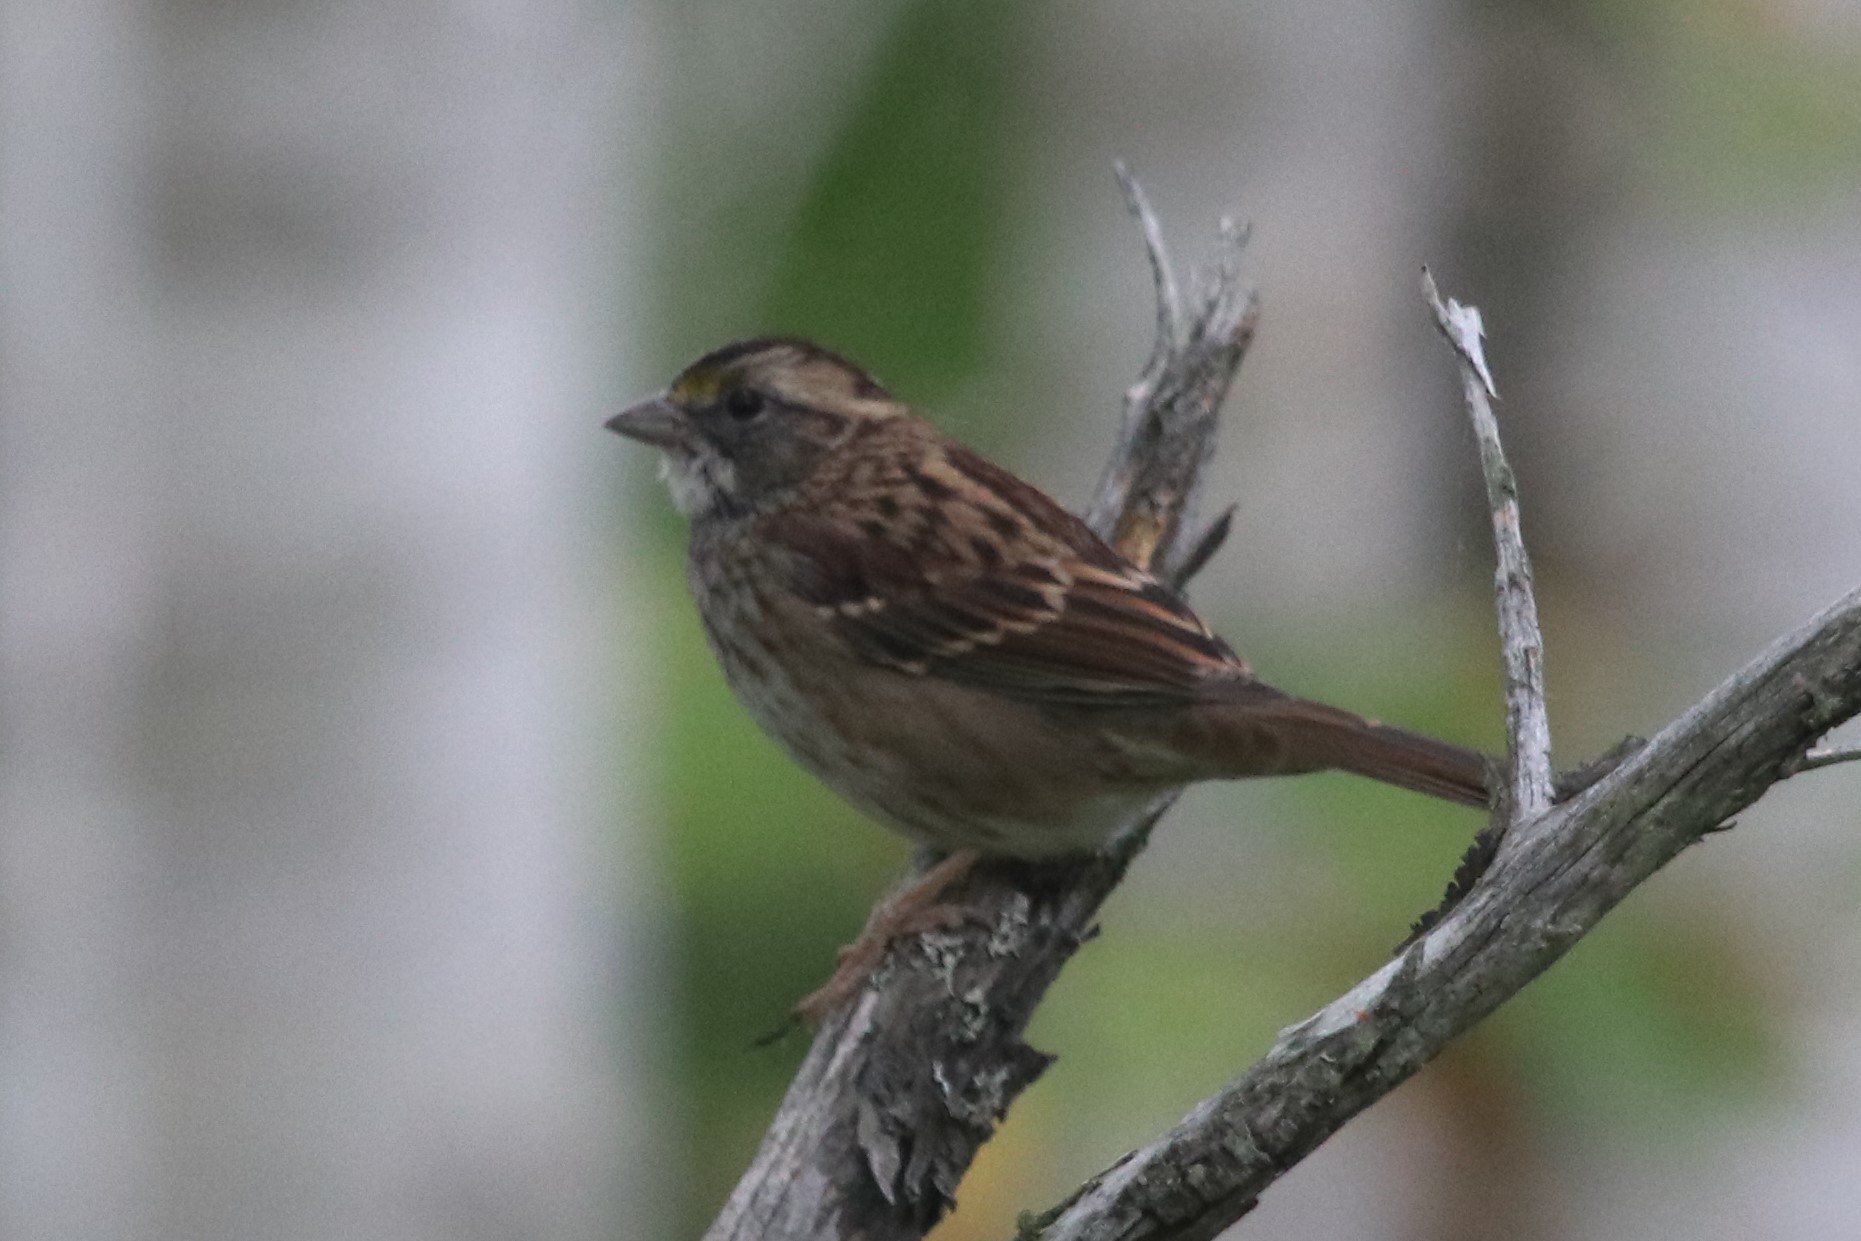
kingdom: Animalia
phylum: Chordata
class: Aves
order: Passeriformes
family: Passerellidae
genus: Zonotrichia
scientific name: Zonotrichia albicollis
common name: White-throated sparrow
